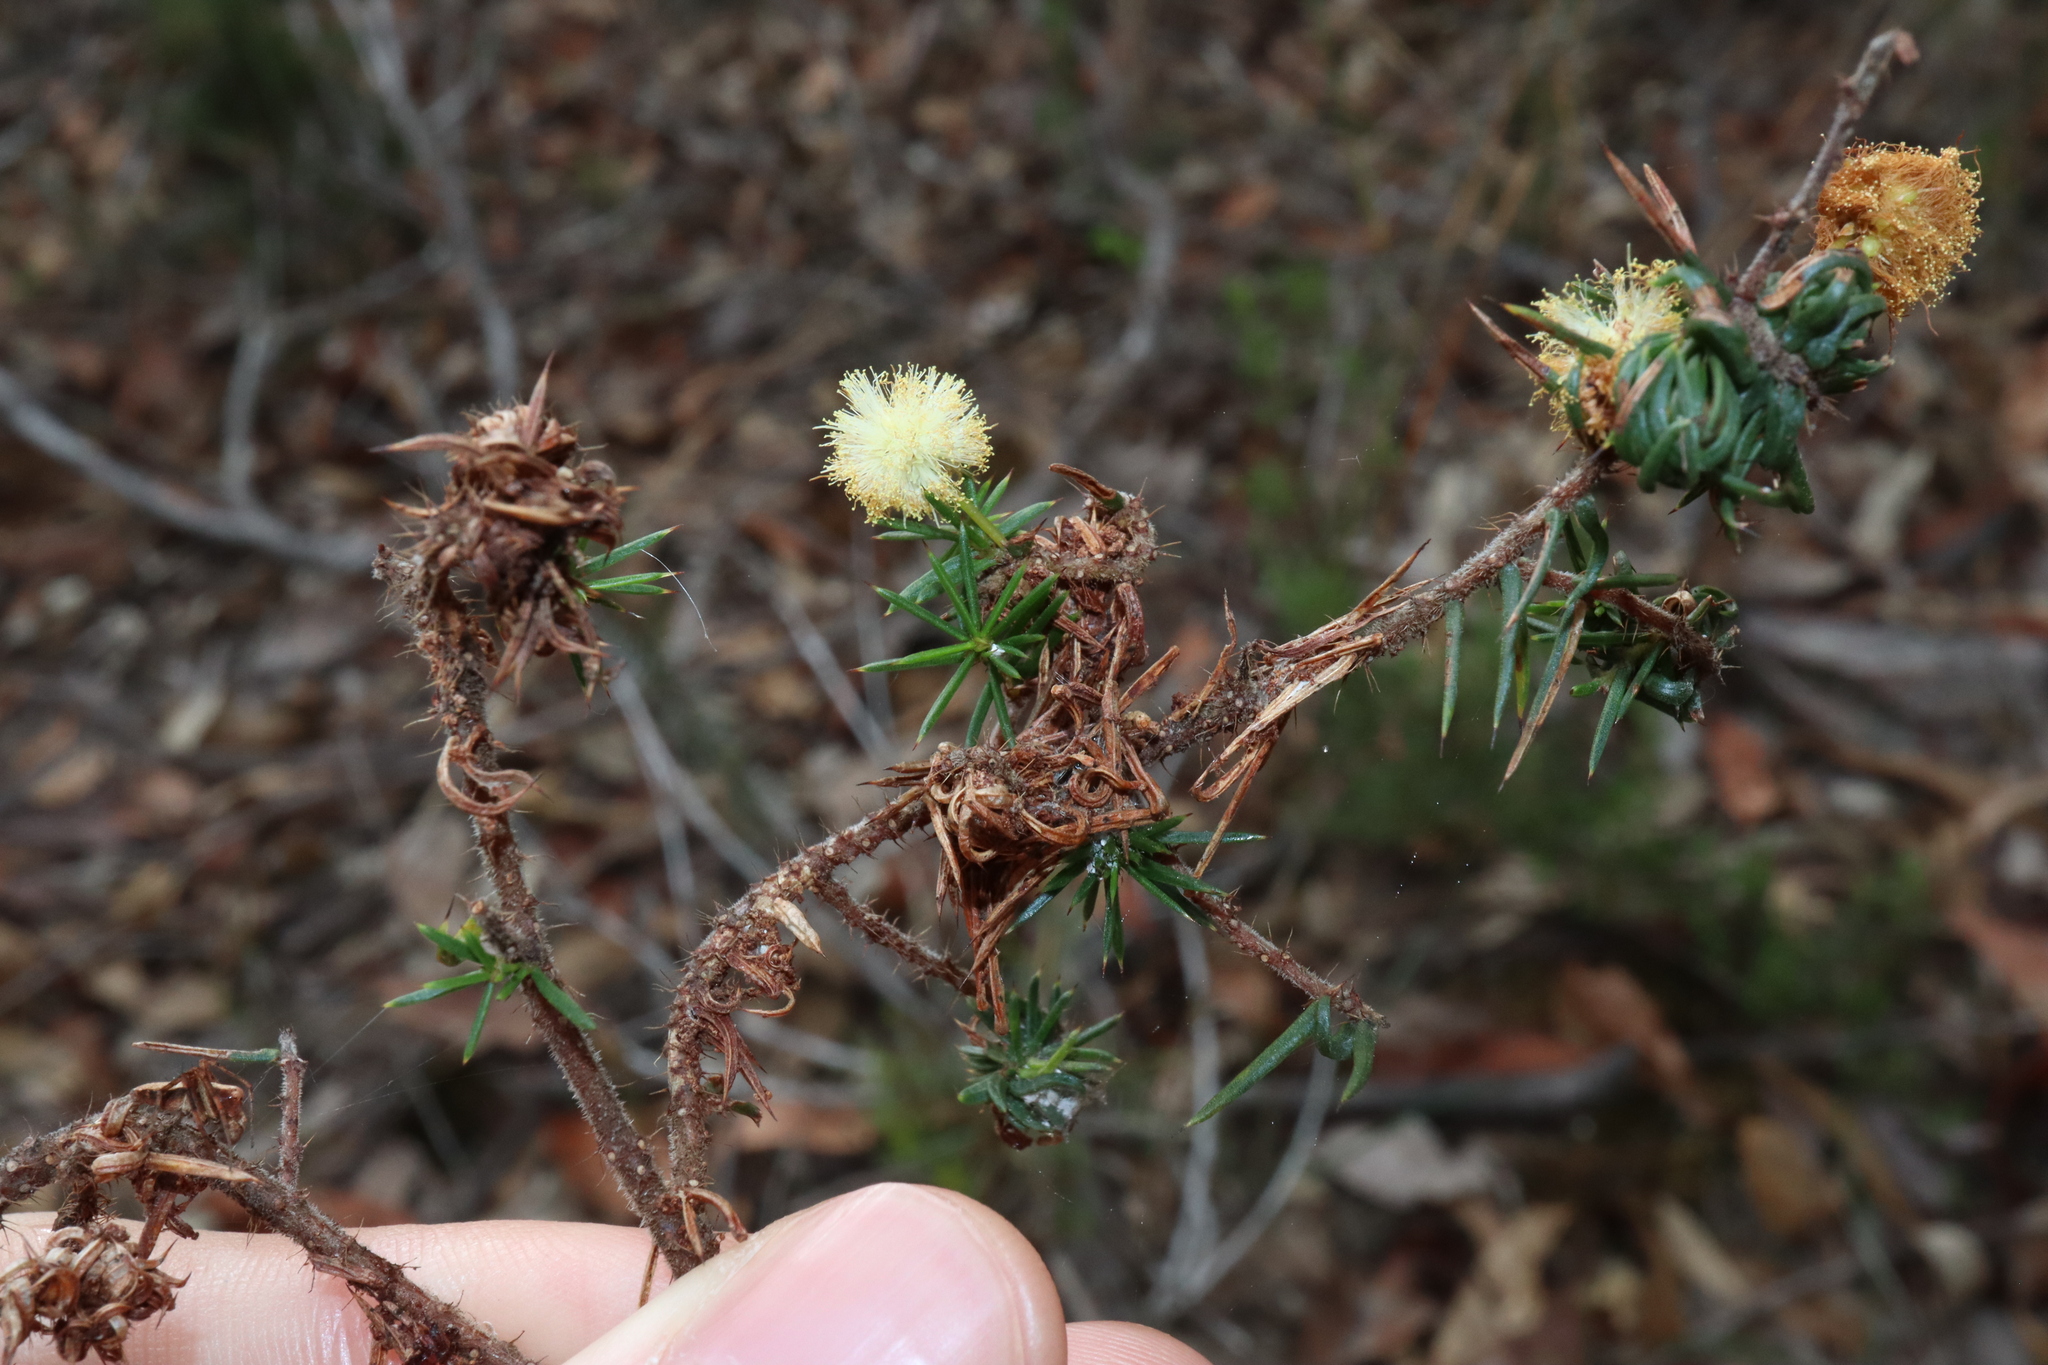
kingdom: Plantae
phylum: Tracheophyta
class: Magnoliopsida
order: Fabales
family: Fabaceae
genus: Acacia
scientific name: Acacia ulicifolia
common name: Juniper wattle
